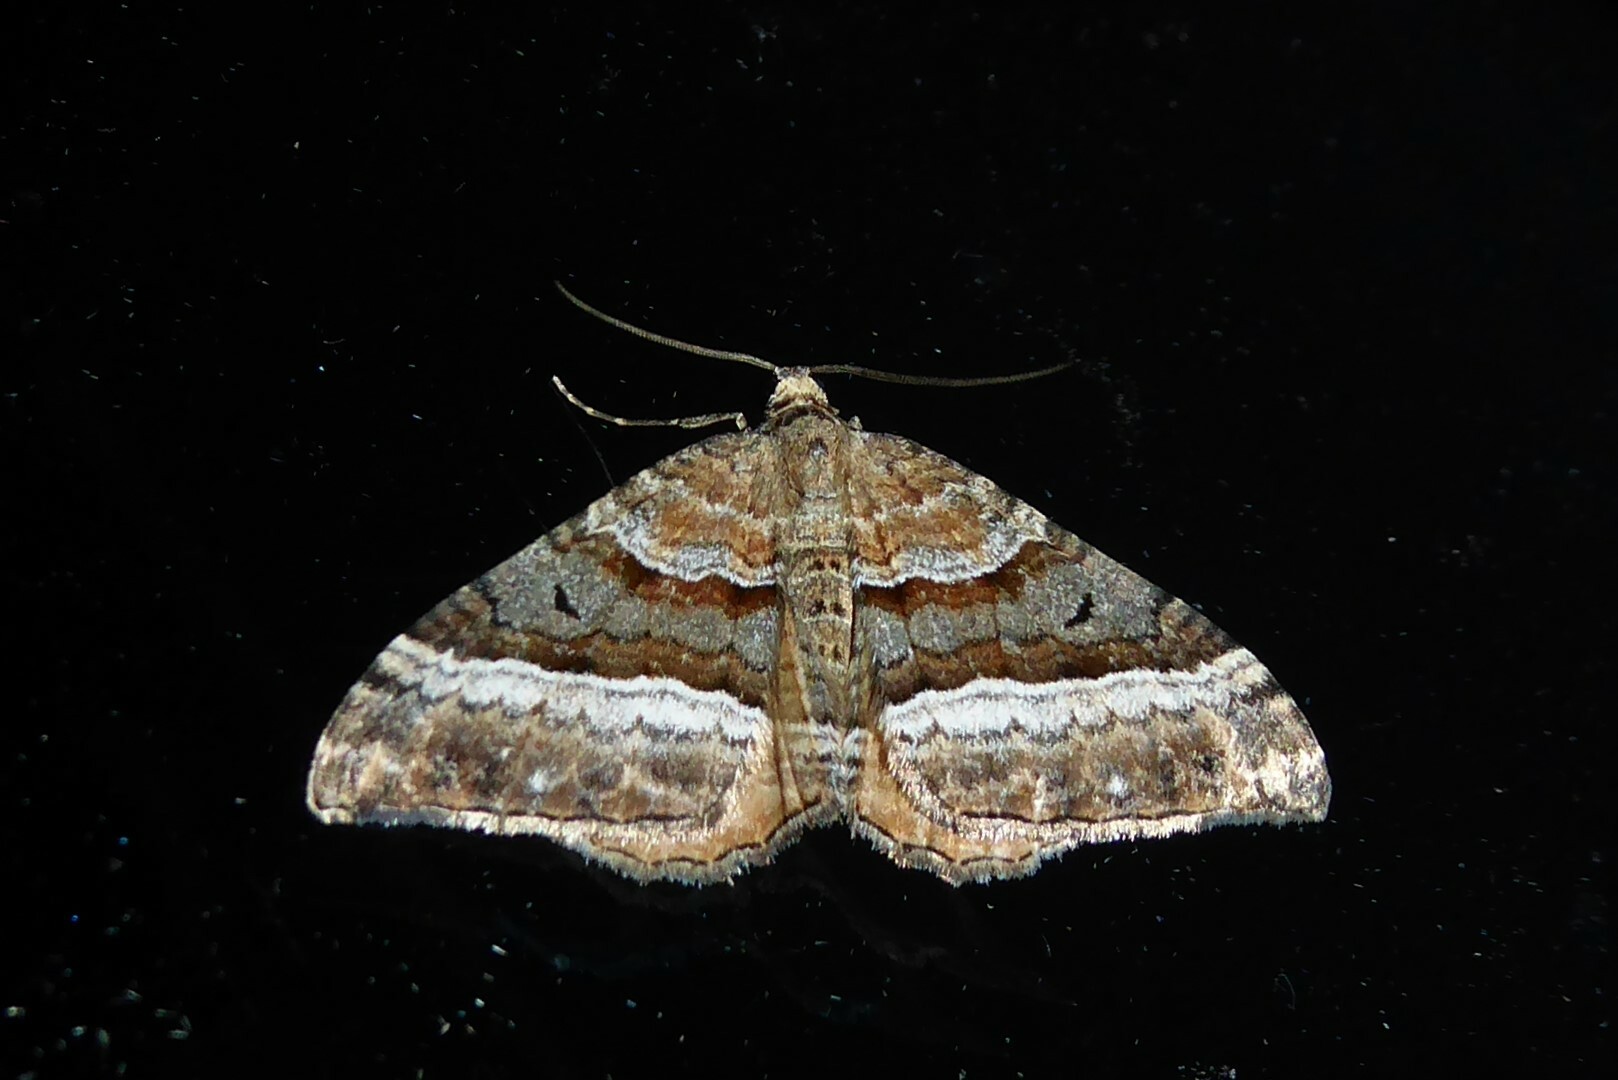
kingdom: Animalia
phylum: Arthropoda
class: Insecta
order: Lepidoptera
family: Geometridae
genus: Hydriomena
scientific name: Hydriomena deltoidata
